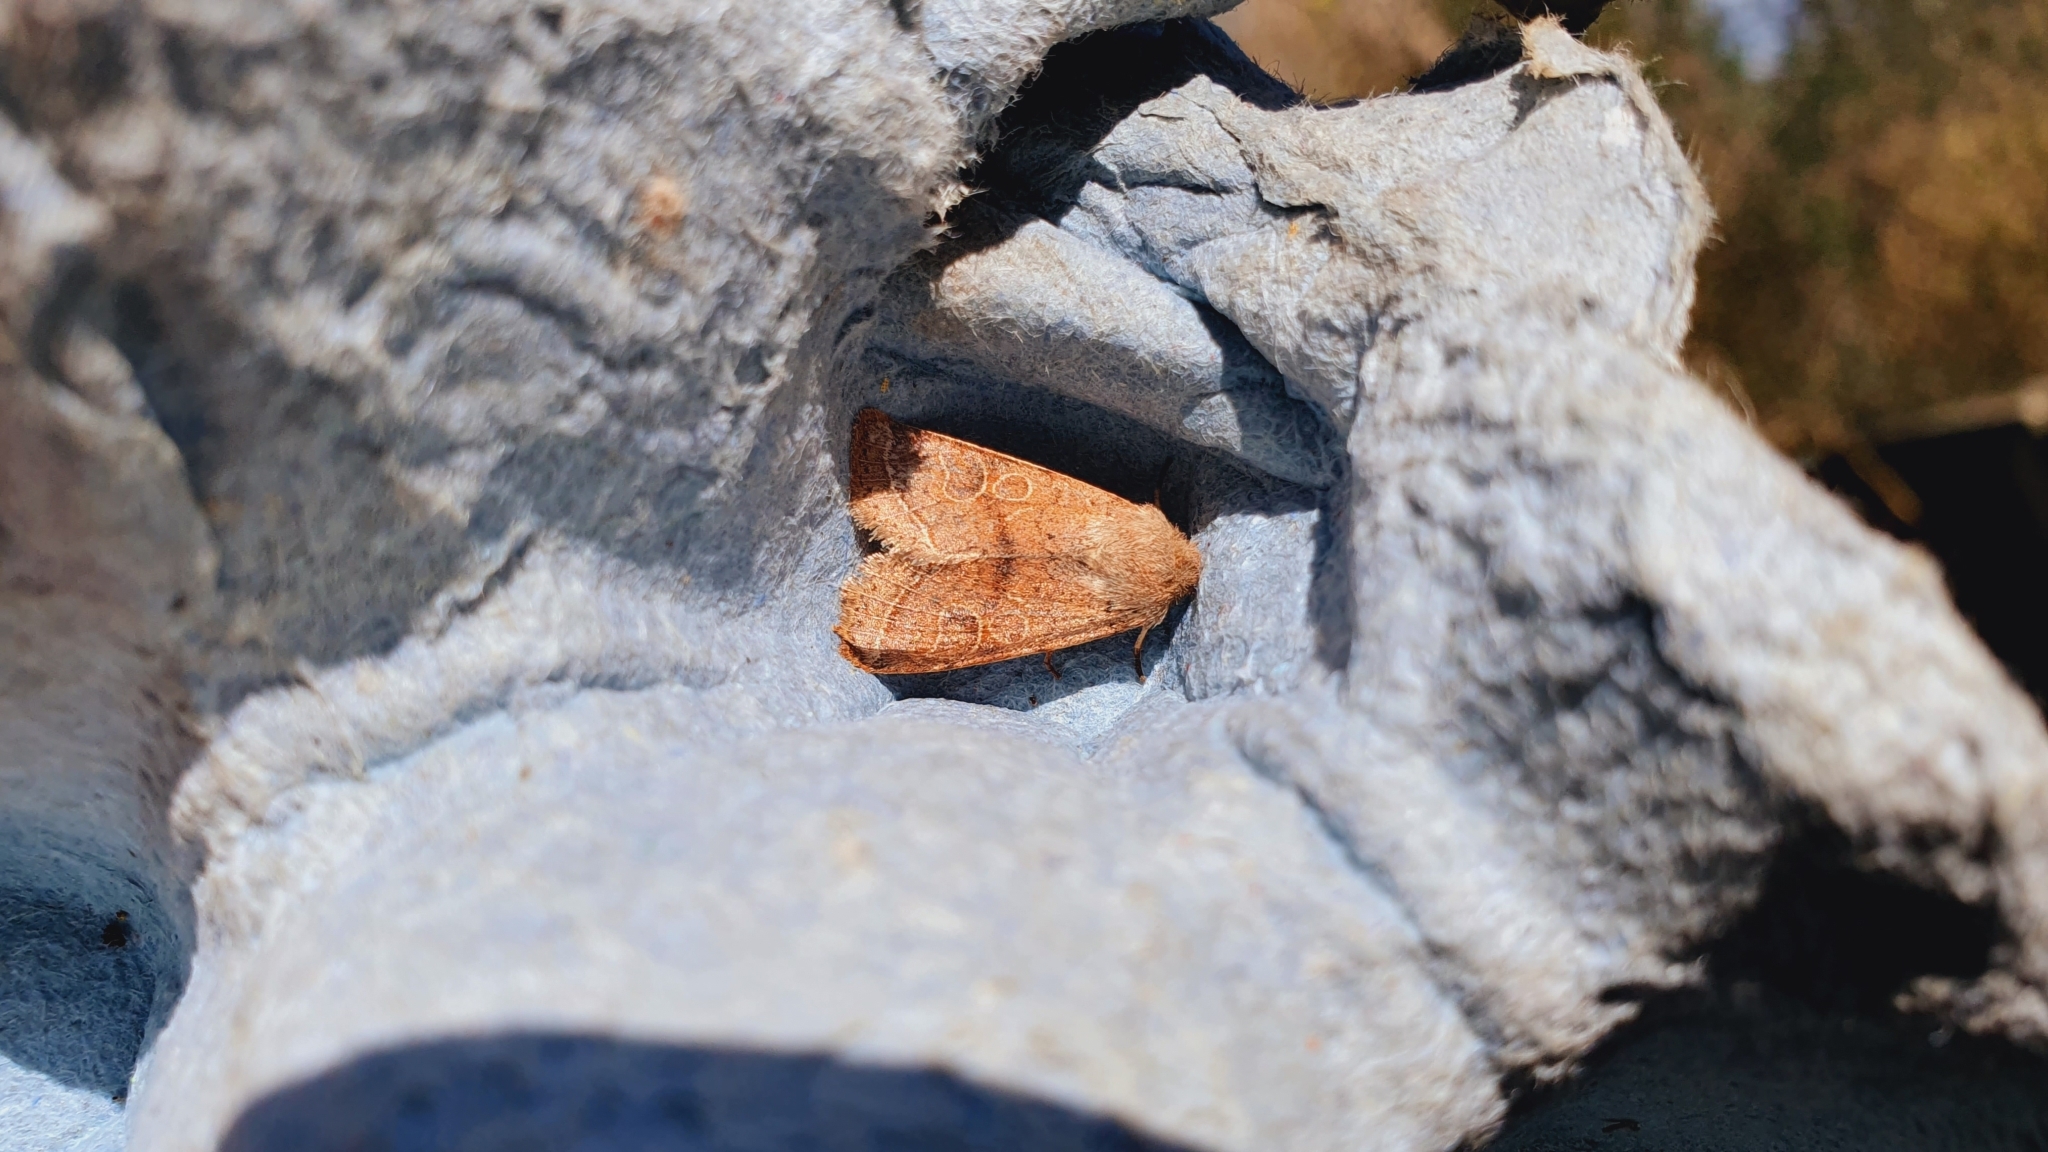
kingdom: Animalia
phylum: Arthropoda
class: Insecta
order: Lepidoptera
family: Noctuidae
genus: Orthosia
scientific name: Orthosia cerasi
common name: Common quaker
